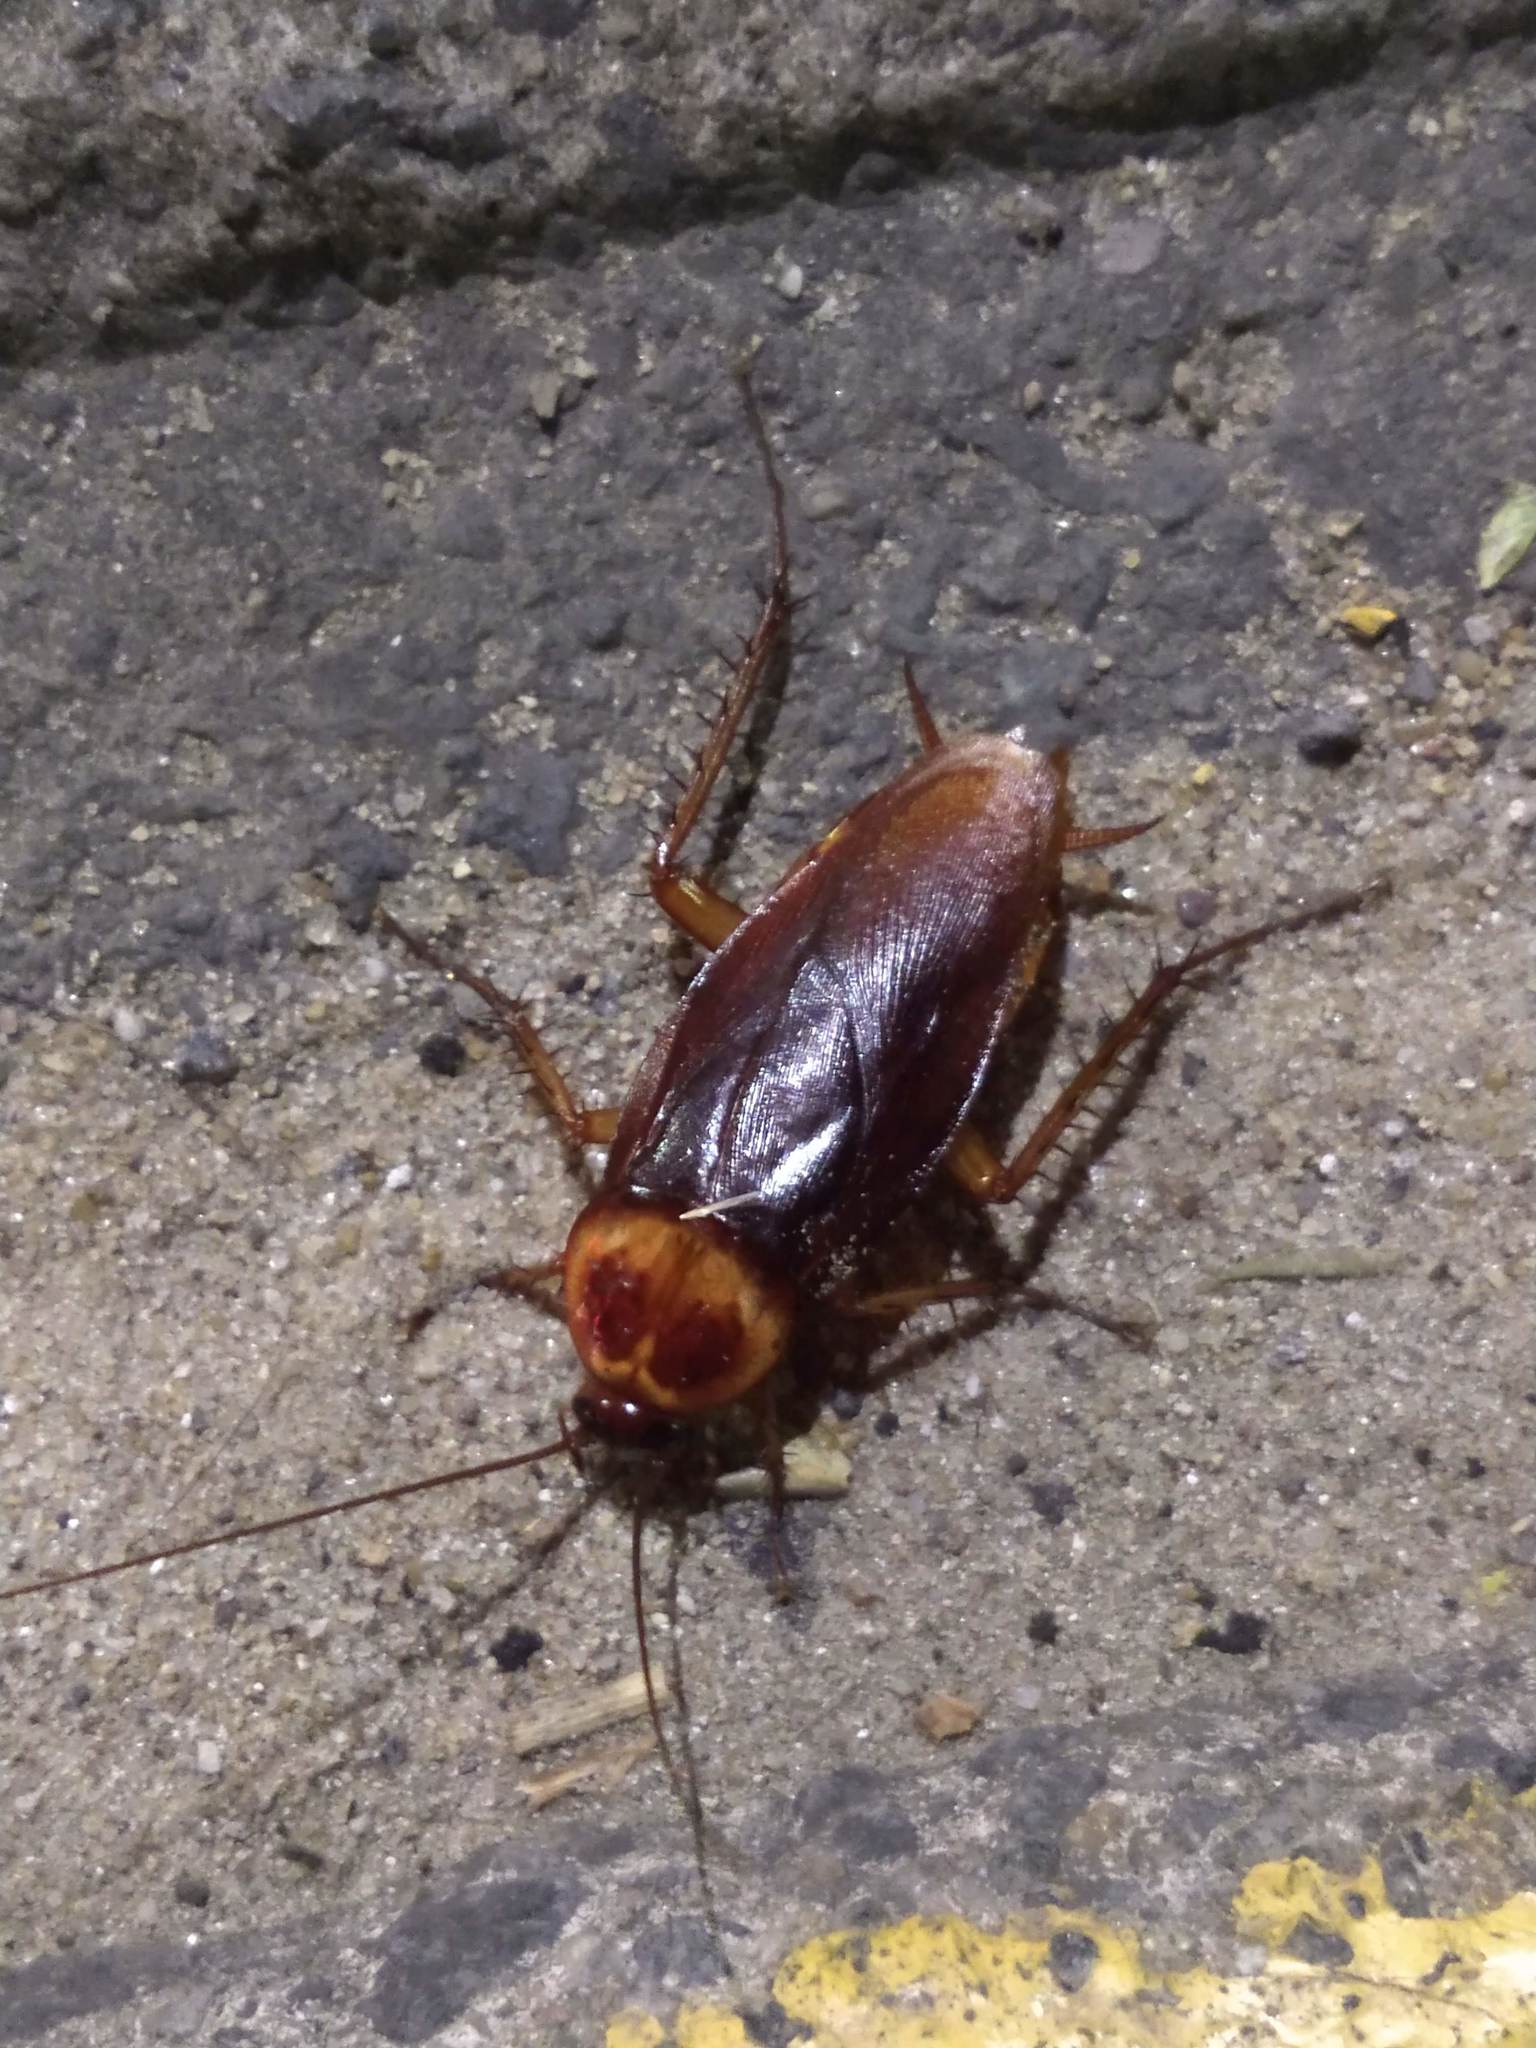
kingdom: Animalia
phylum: Arthropoda
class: Insecta
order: Blattodea
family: Blattidae
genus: Periplaneta
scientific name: Periplaneta americana
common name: American cockroach
